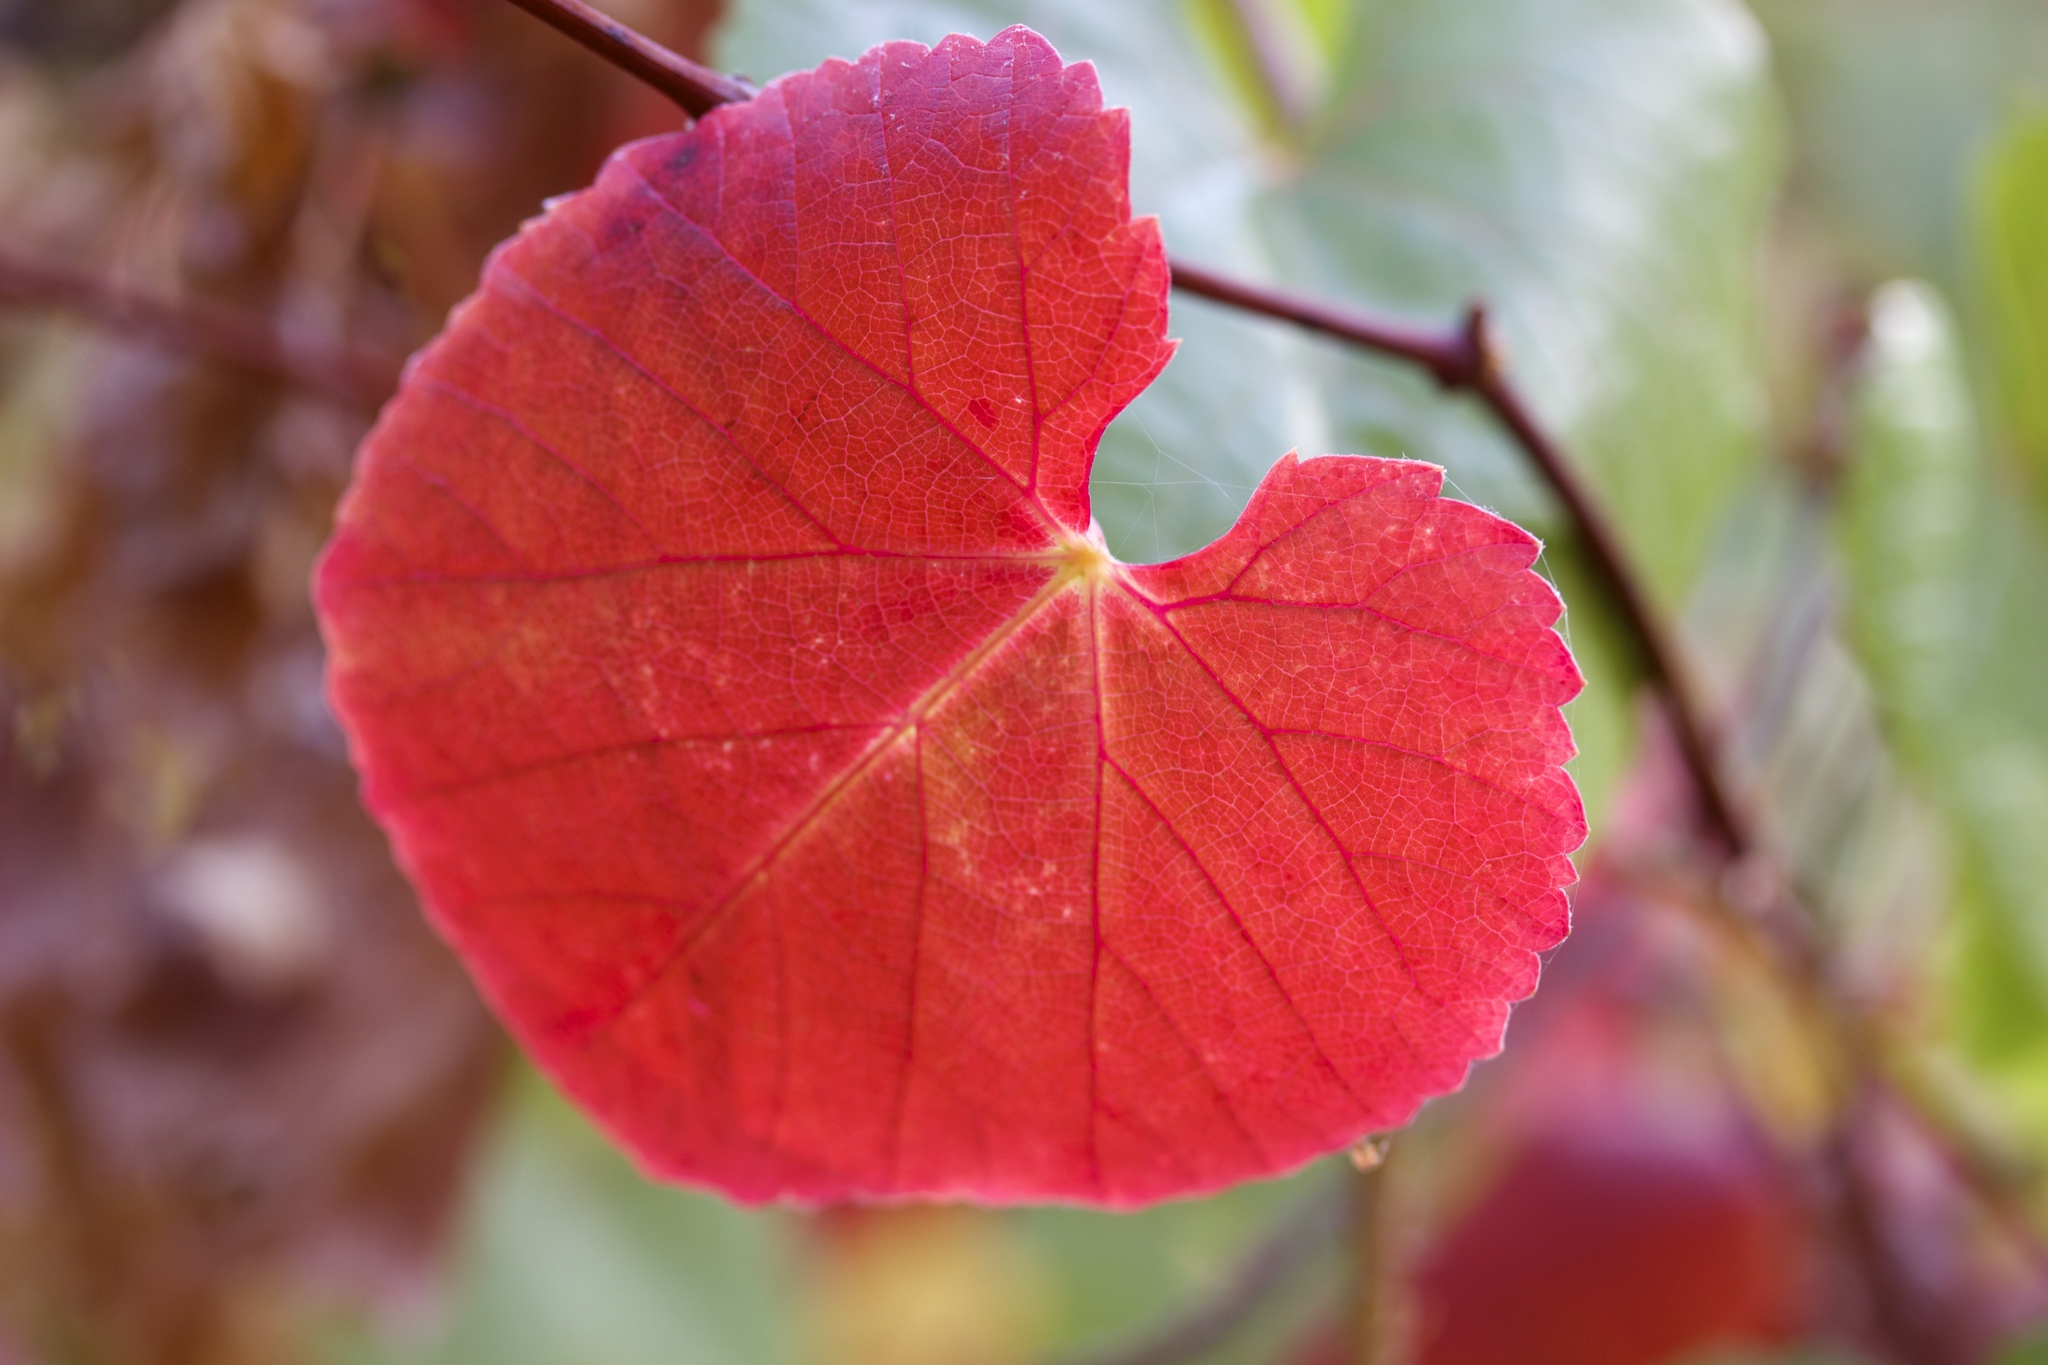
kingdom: Plantae
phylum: Tracheophyta
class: Magnoliopsida
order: Vitales
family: Vitaceae
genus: Vitis
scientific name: Vitis californica
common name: California wild grape
